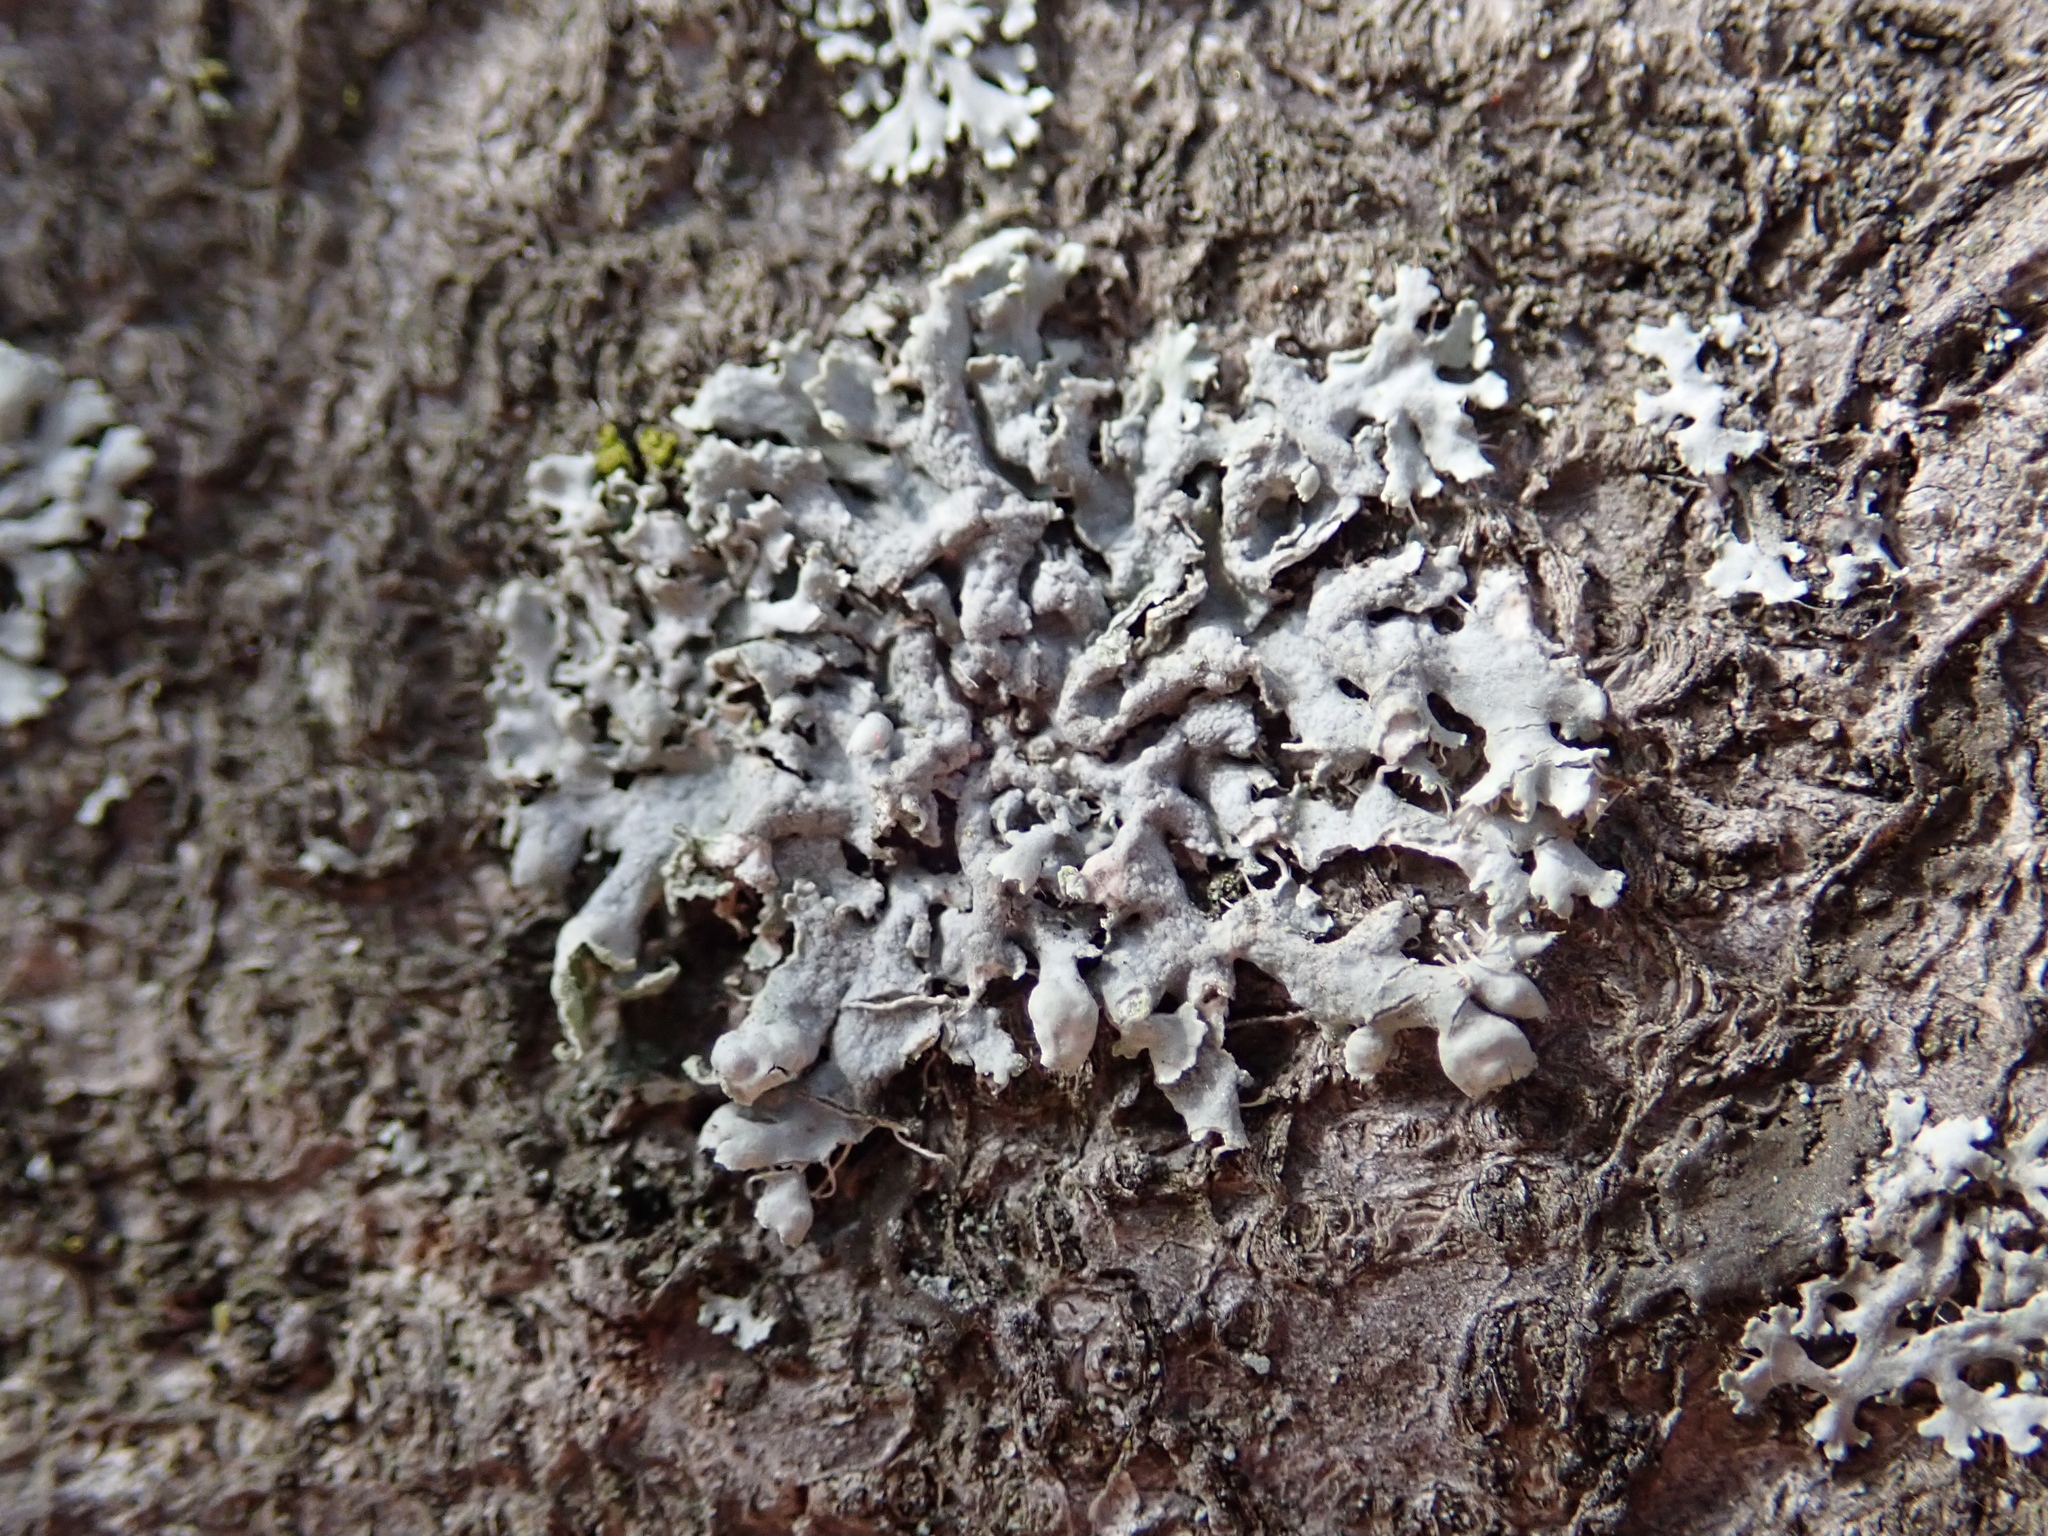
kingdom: Fungi
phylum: Ascomycota
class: Lecanoromycetes
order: Caliciales
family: Physciaceae
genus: Physcia
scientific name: Physcia adscendens
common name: Hooded rosette lichen
